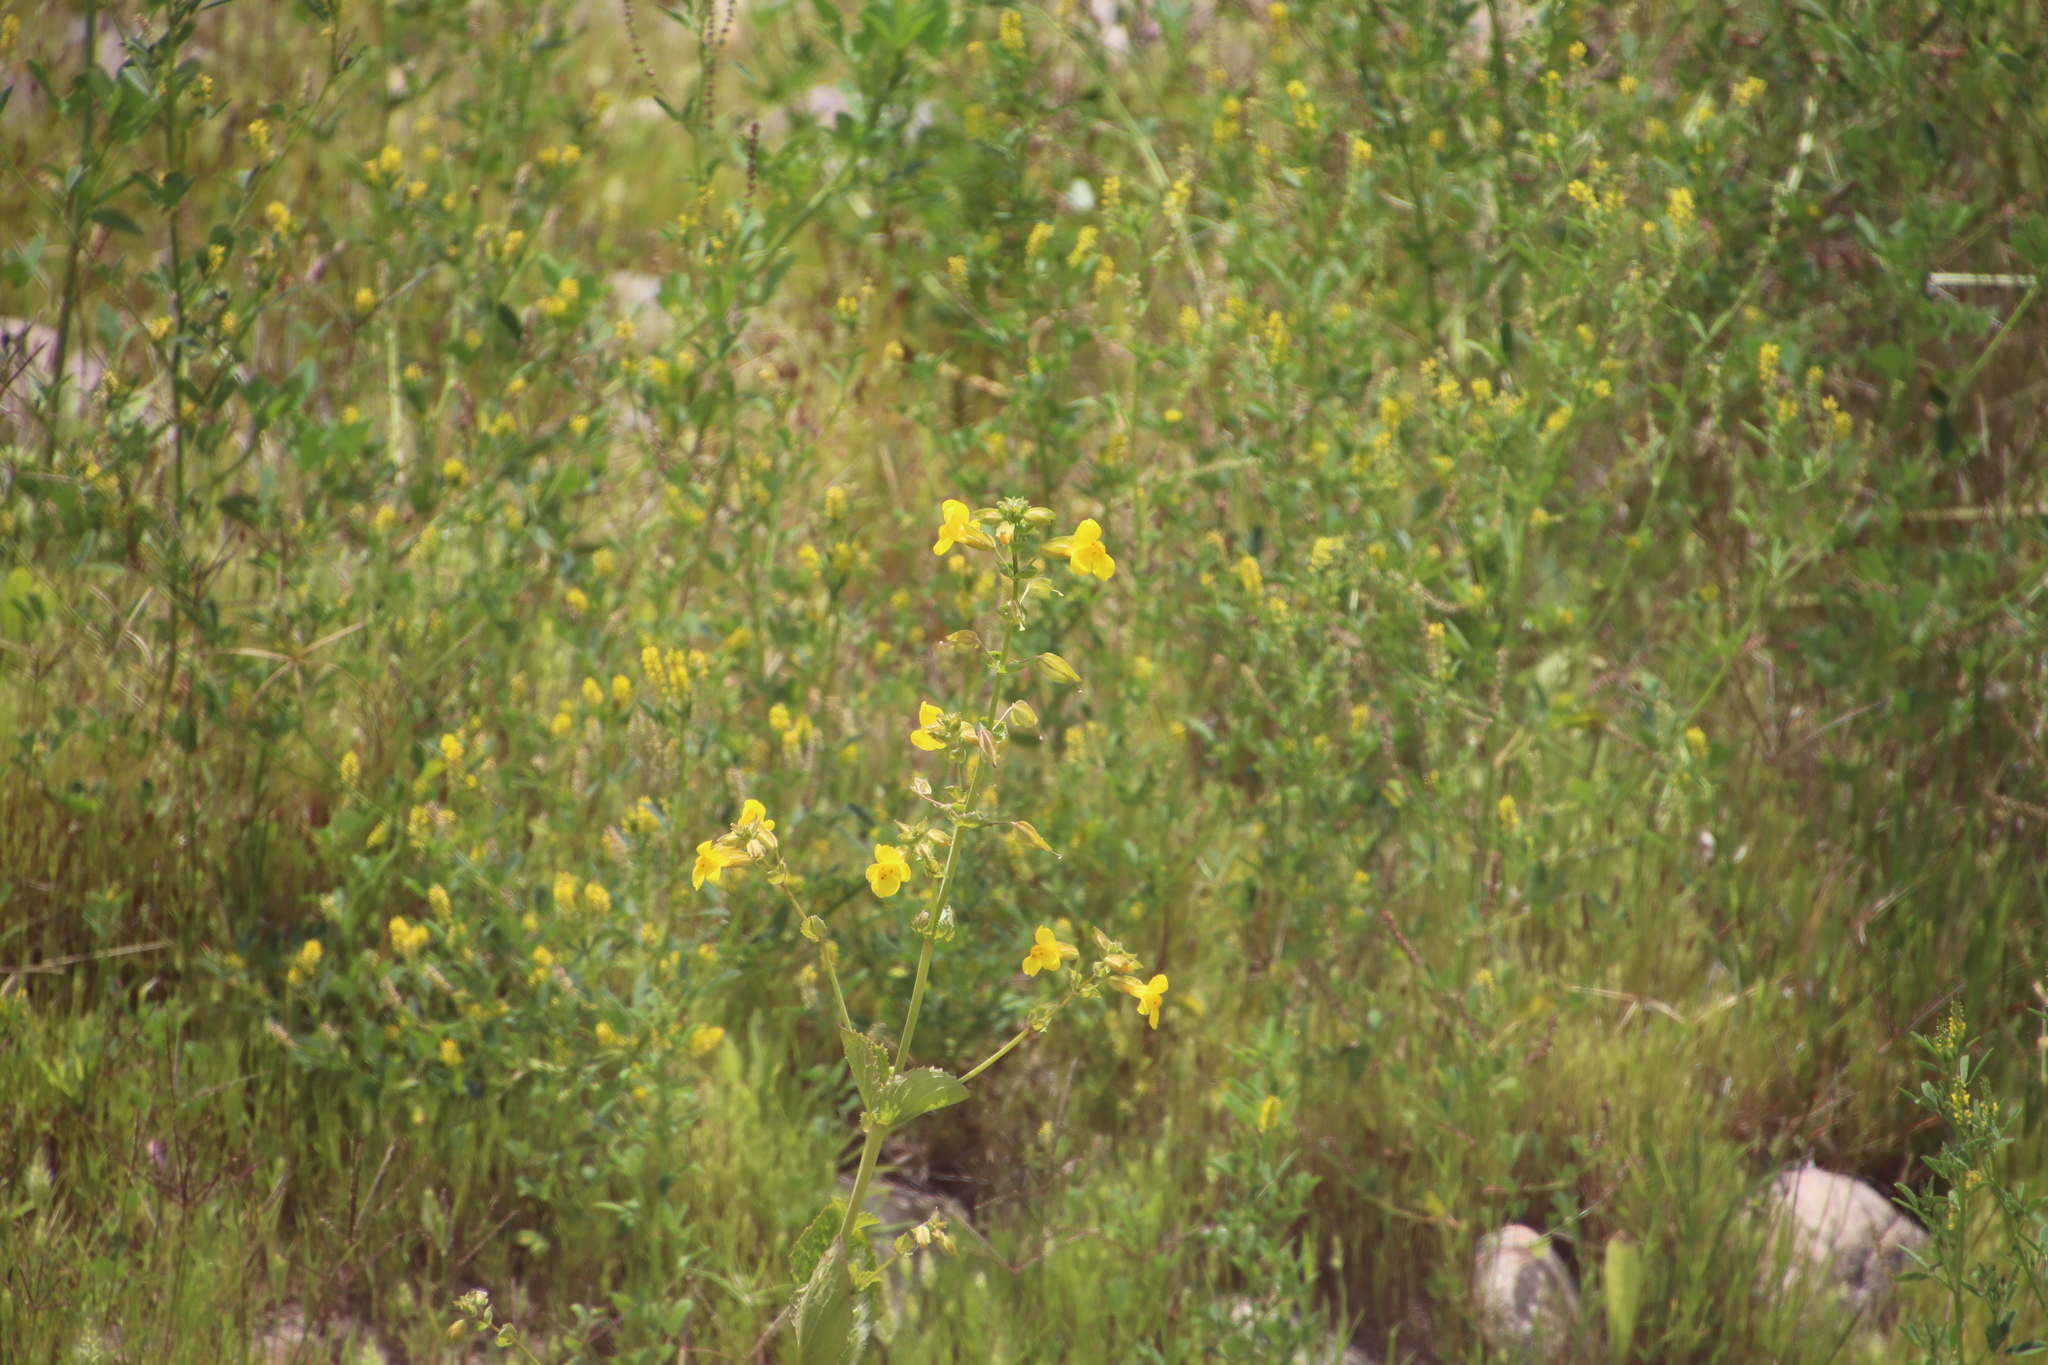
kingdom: Plantae
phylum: Tracheophyta
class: Magnoliopsida
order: Lamiales
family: Phrymaceae
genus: Erythranthe
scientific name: Erythranthe guttata
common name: Monkeyflower
